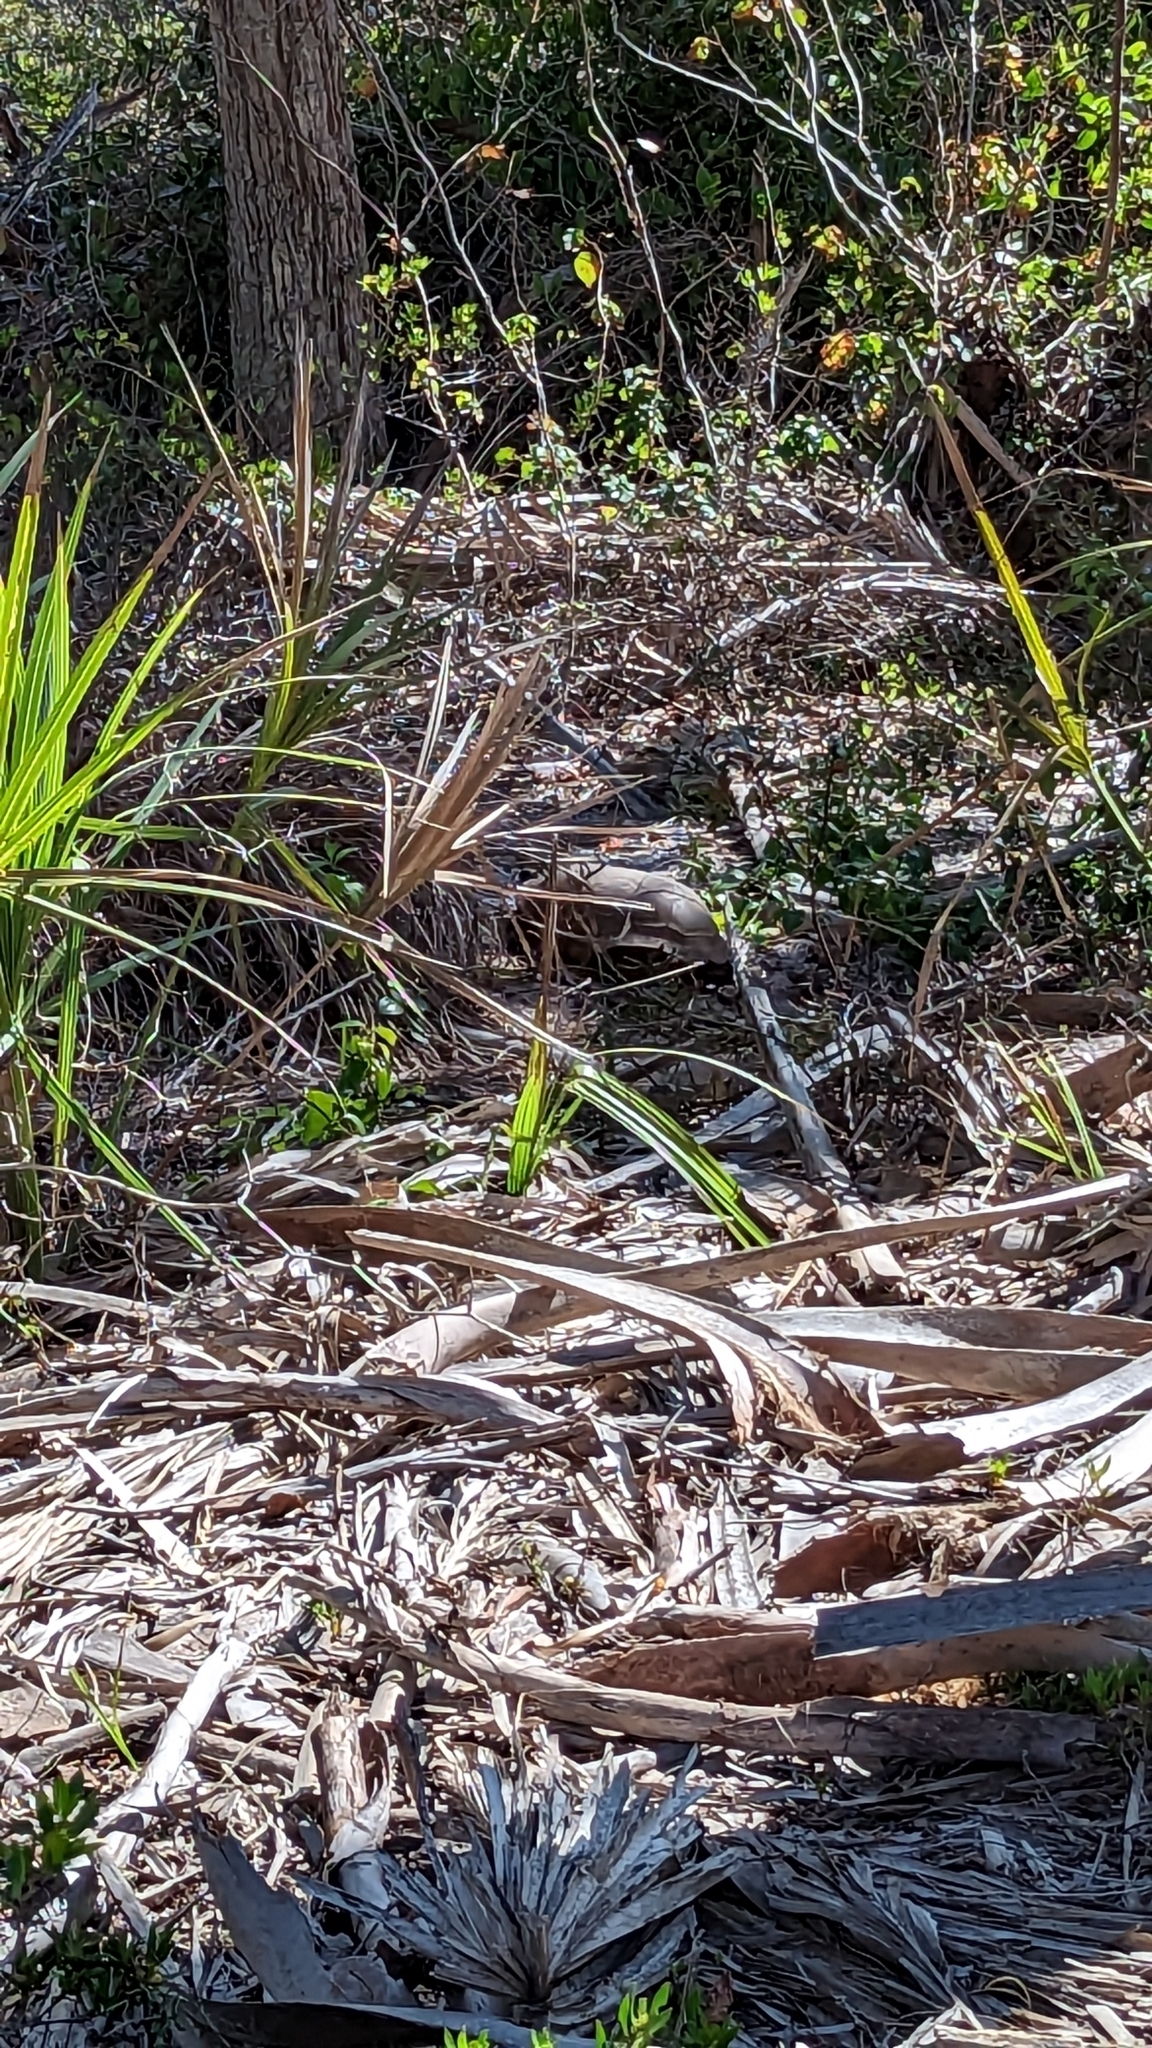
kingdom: Animalia
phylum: Chordata
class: Testudines
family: Testudinidae
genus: Gopherus
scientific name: Gopherus polyphemus
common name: Florida gopher tortoise
